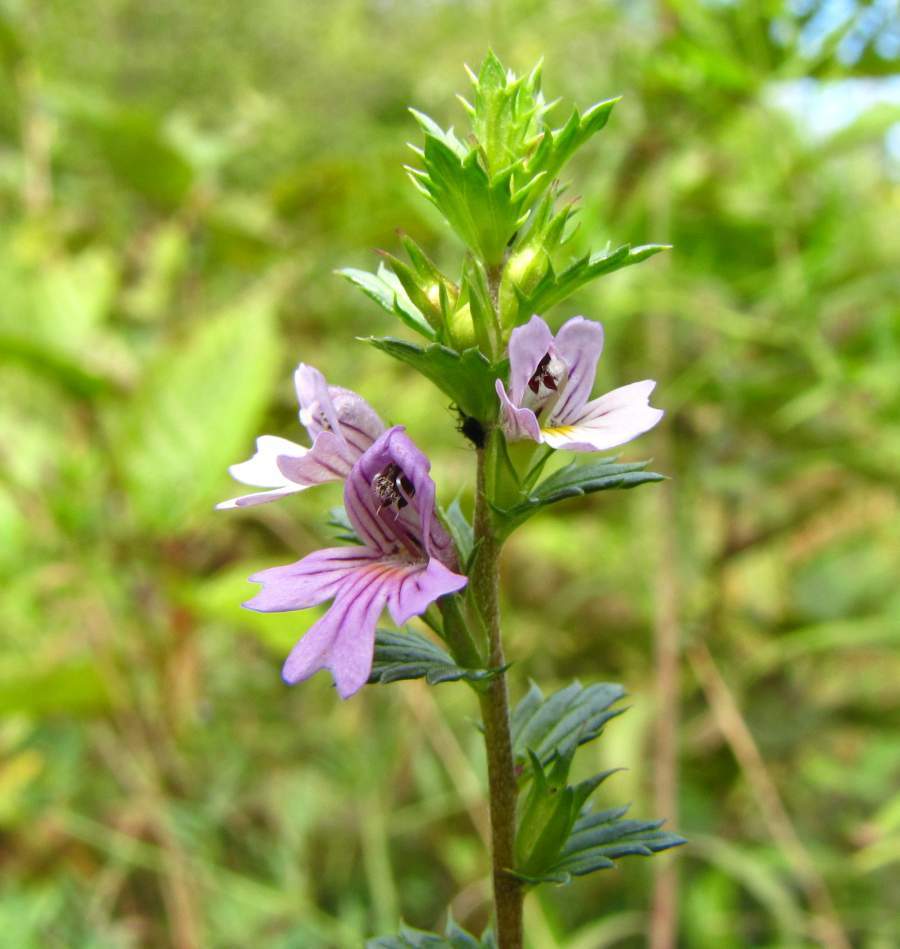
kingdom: Plantae
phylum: Tracheophyta
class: Magnoliopsida
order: Lamiales
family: Orobanchaceae
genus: Euphrasia
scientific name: Euphrasia stricta
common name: Drug eyebright
